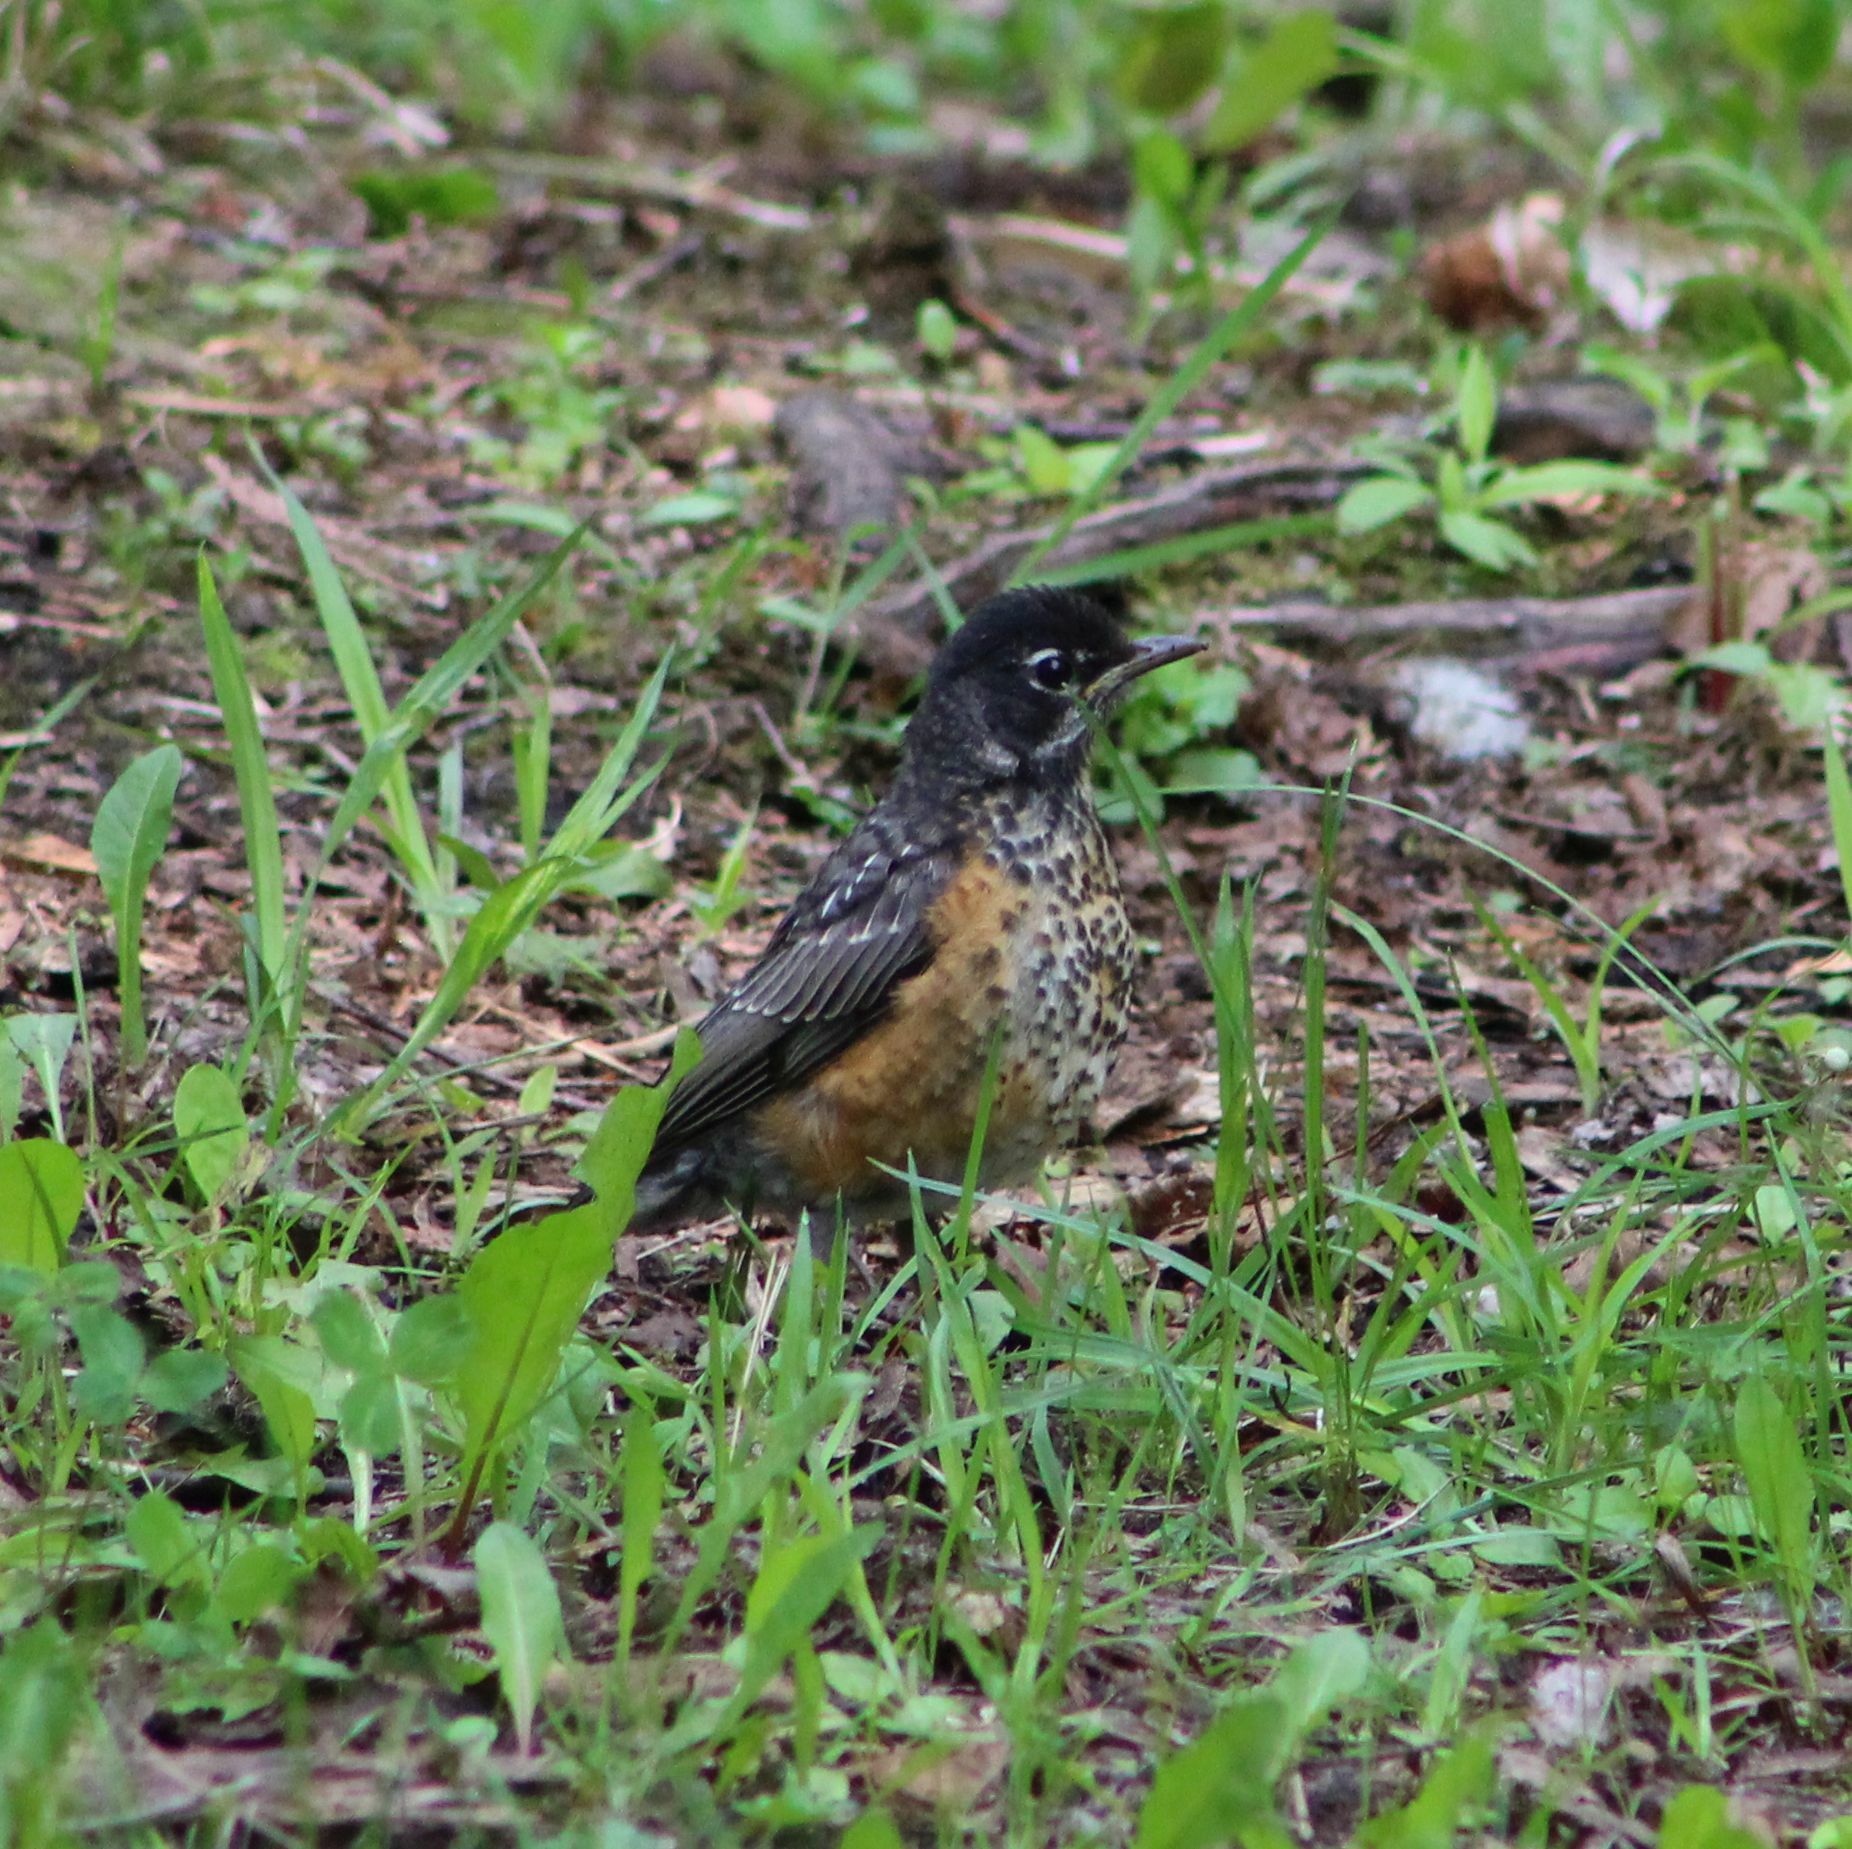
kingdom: Animalia
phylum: Chordata
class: Aves
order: Passeriformes
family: Turdidae
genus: Turdus
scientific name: Turdus migratorius
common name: American robin
